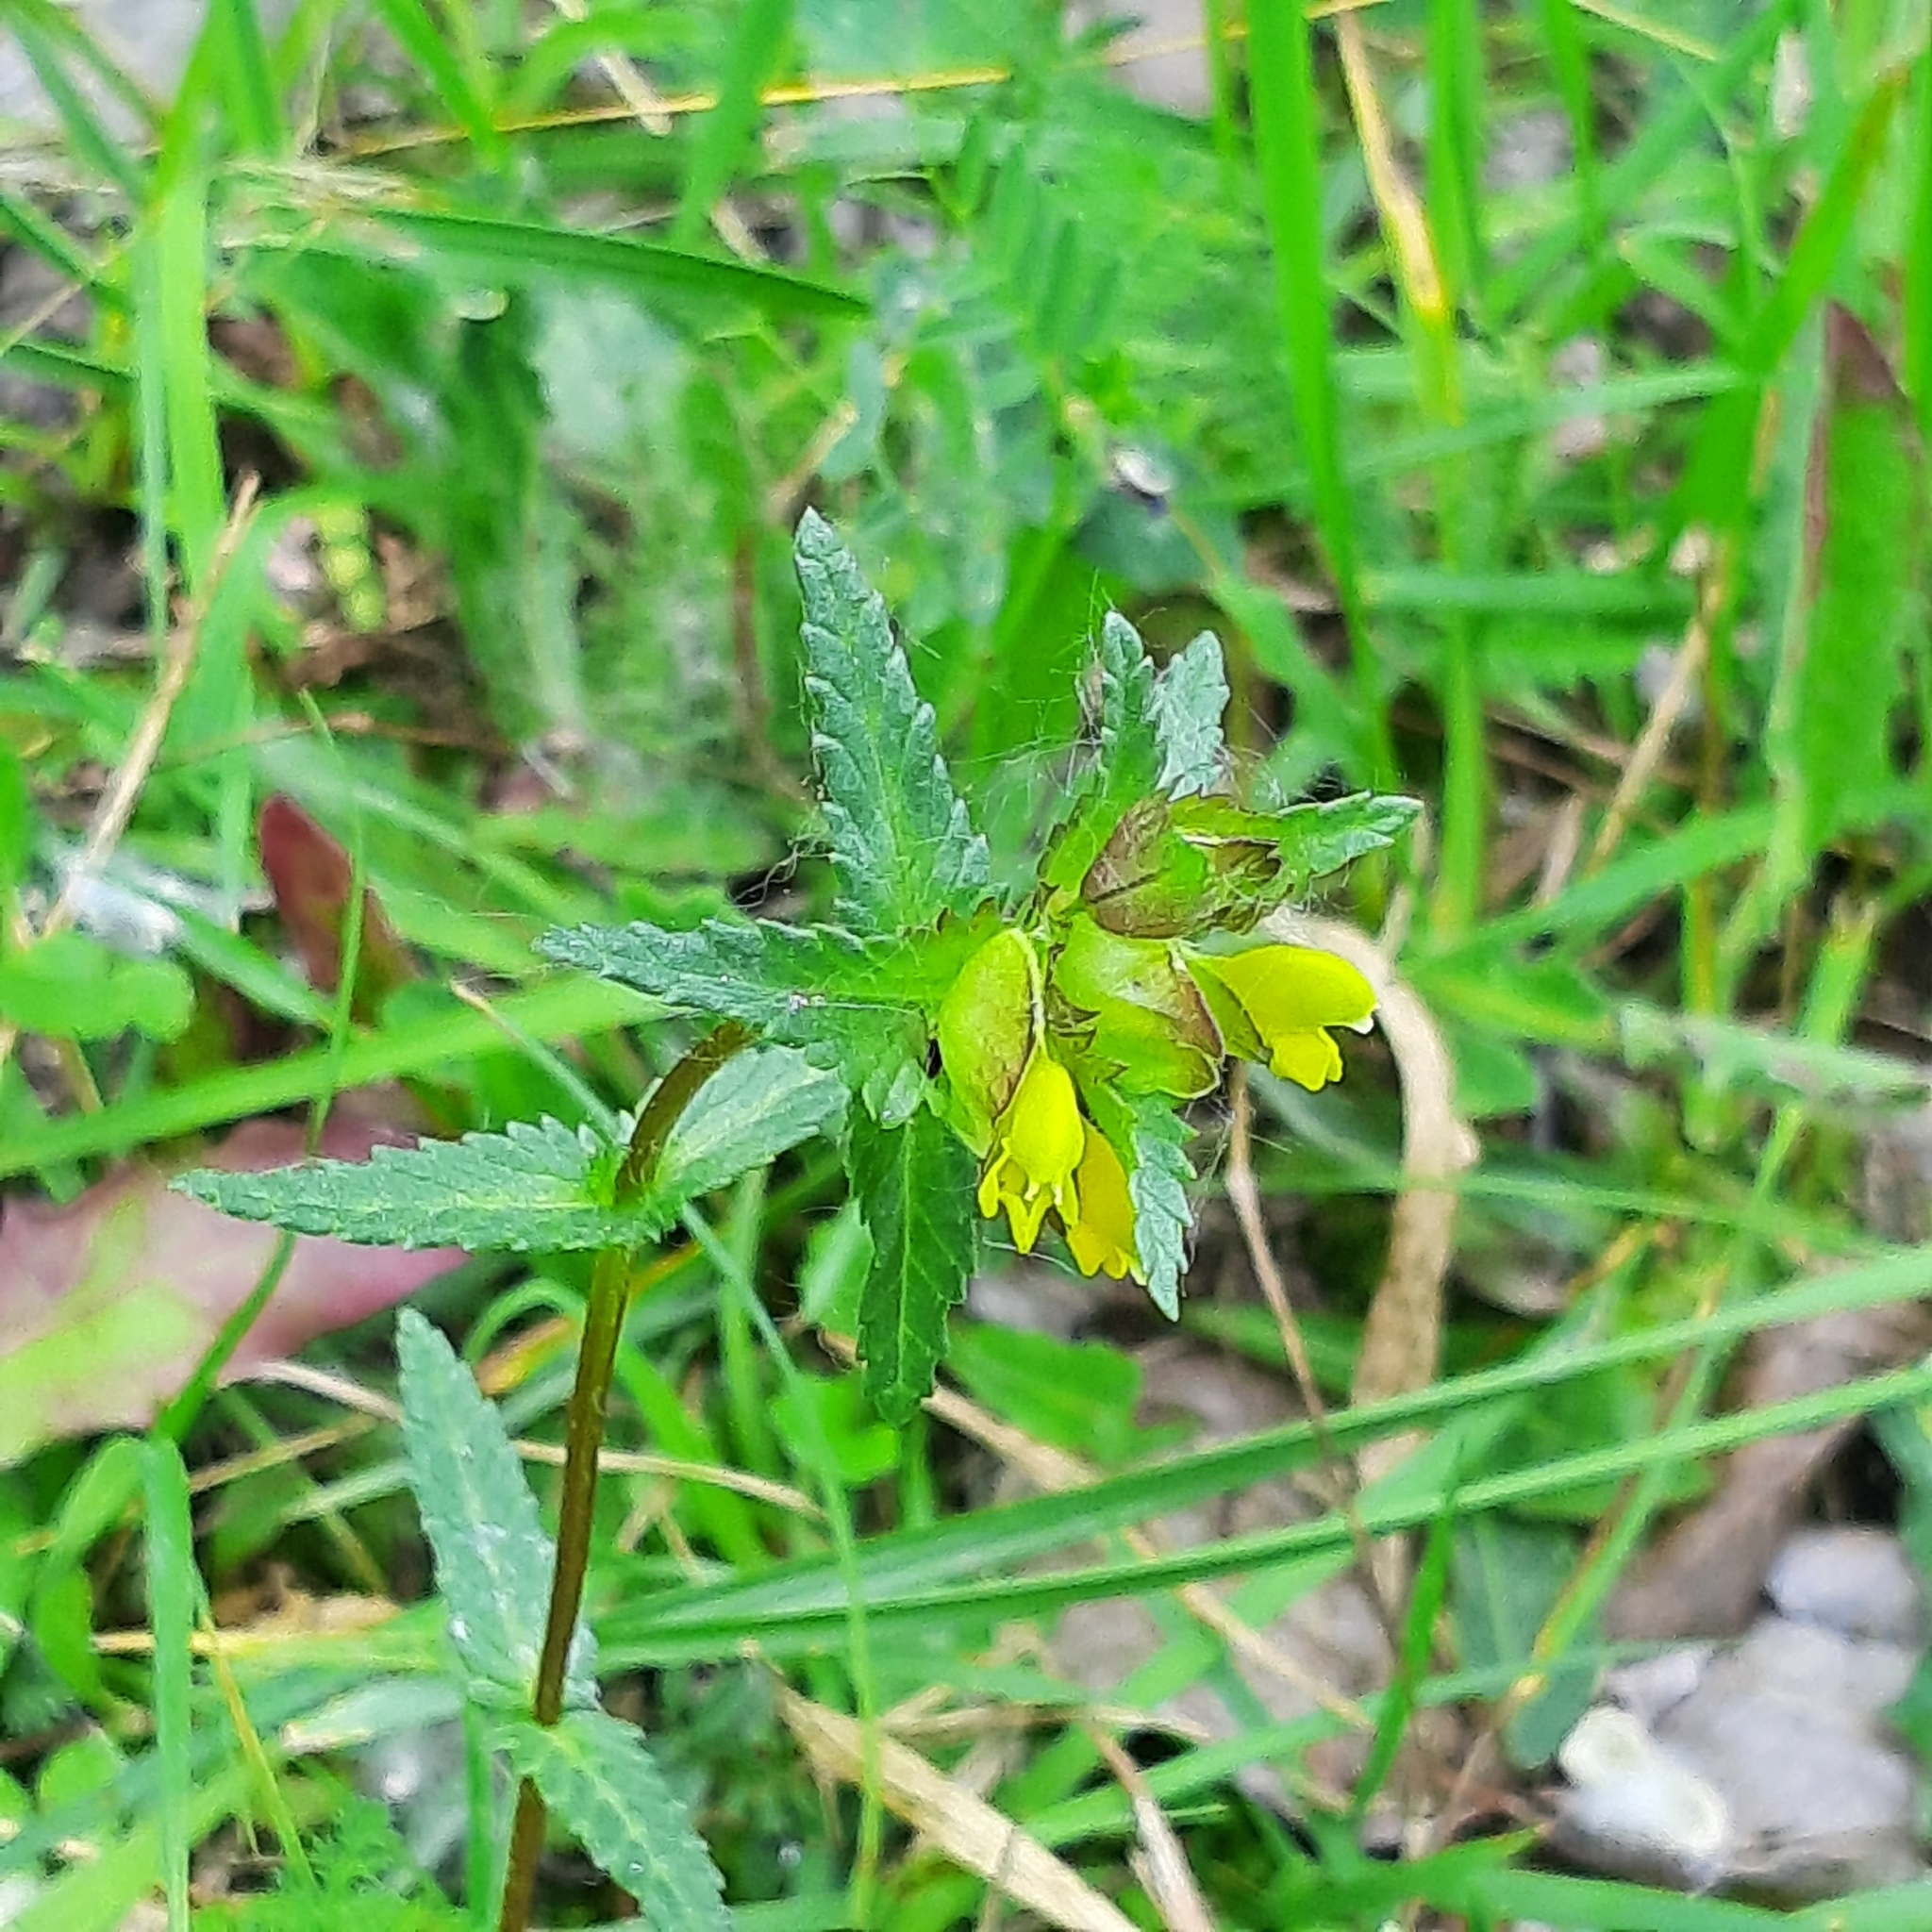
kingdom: Plantae
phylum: Tracheophyta
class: Magnoliopsida
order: Lamiales
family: Orobanchaceae
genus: Rhinanthus
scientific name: Rhinanthus minor
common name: Yellow-rattle
